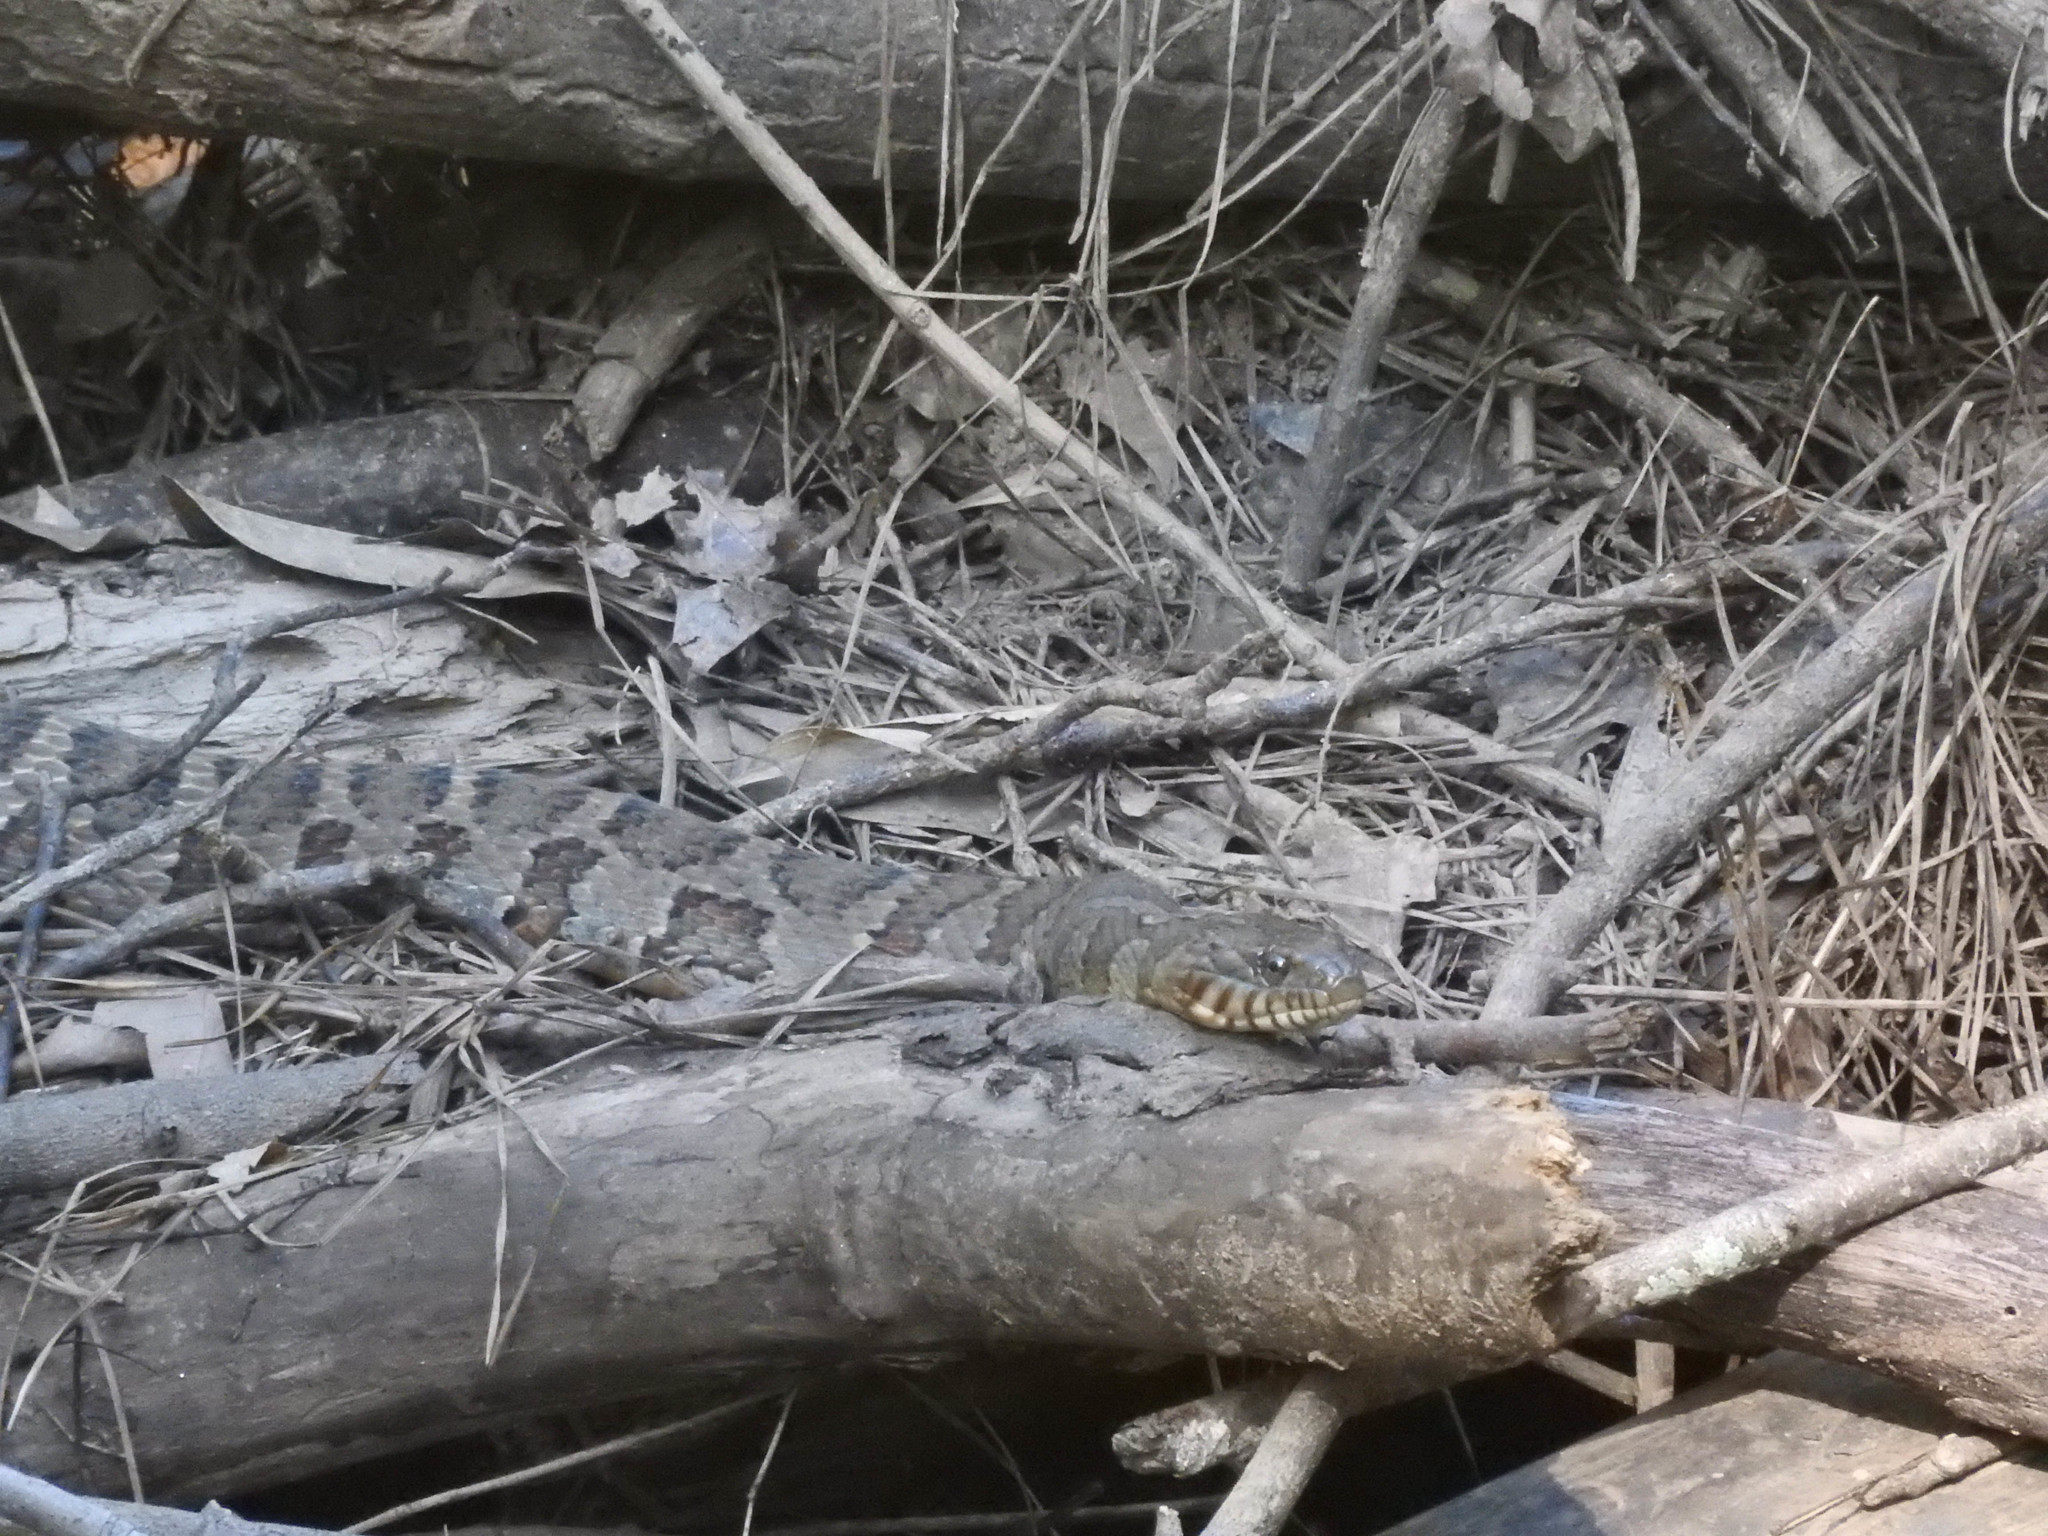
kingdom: Animalia
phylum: Chordata
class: Squamata
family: Colubridae
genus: Nerodia
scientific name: Nerodia sipedon
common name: Northern water snake
